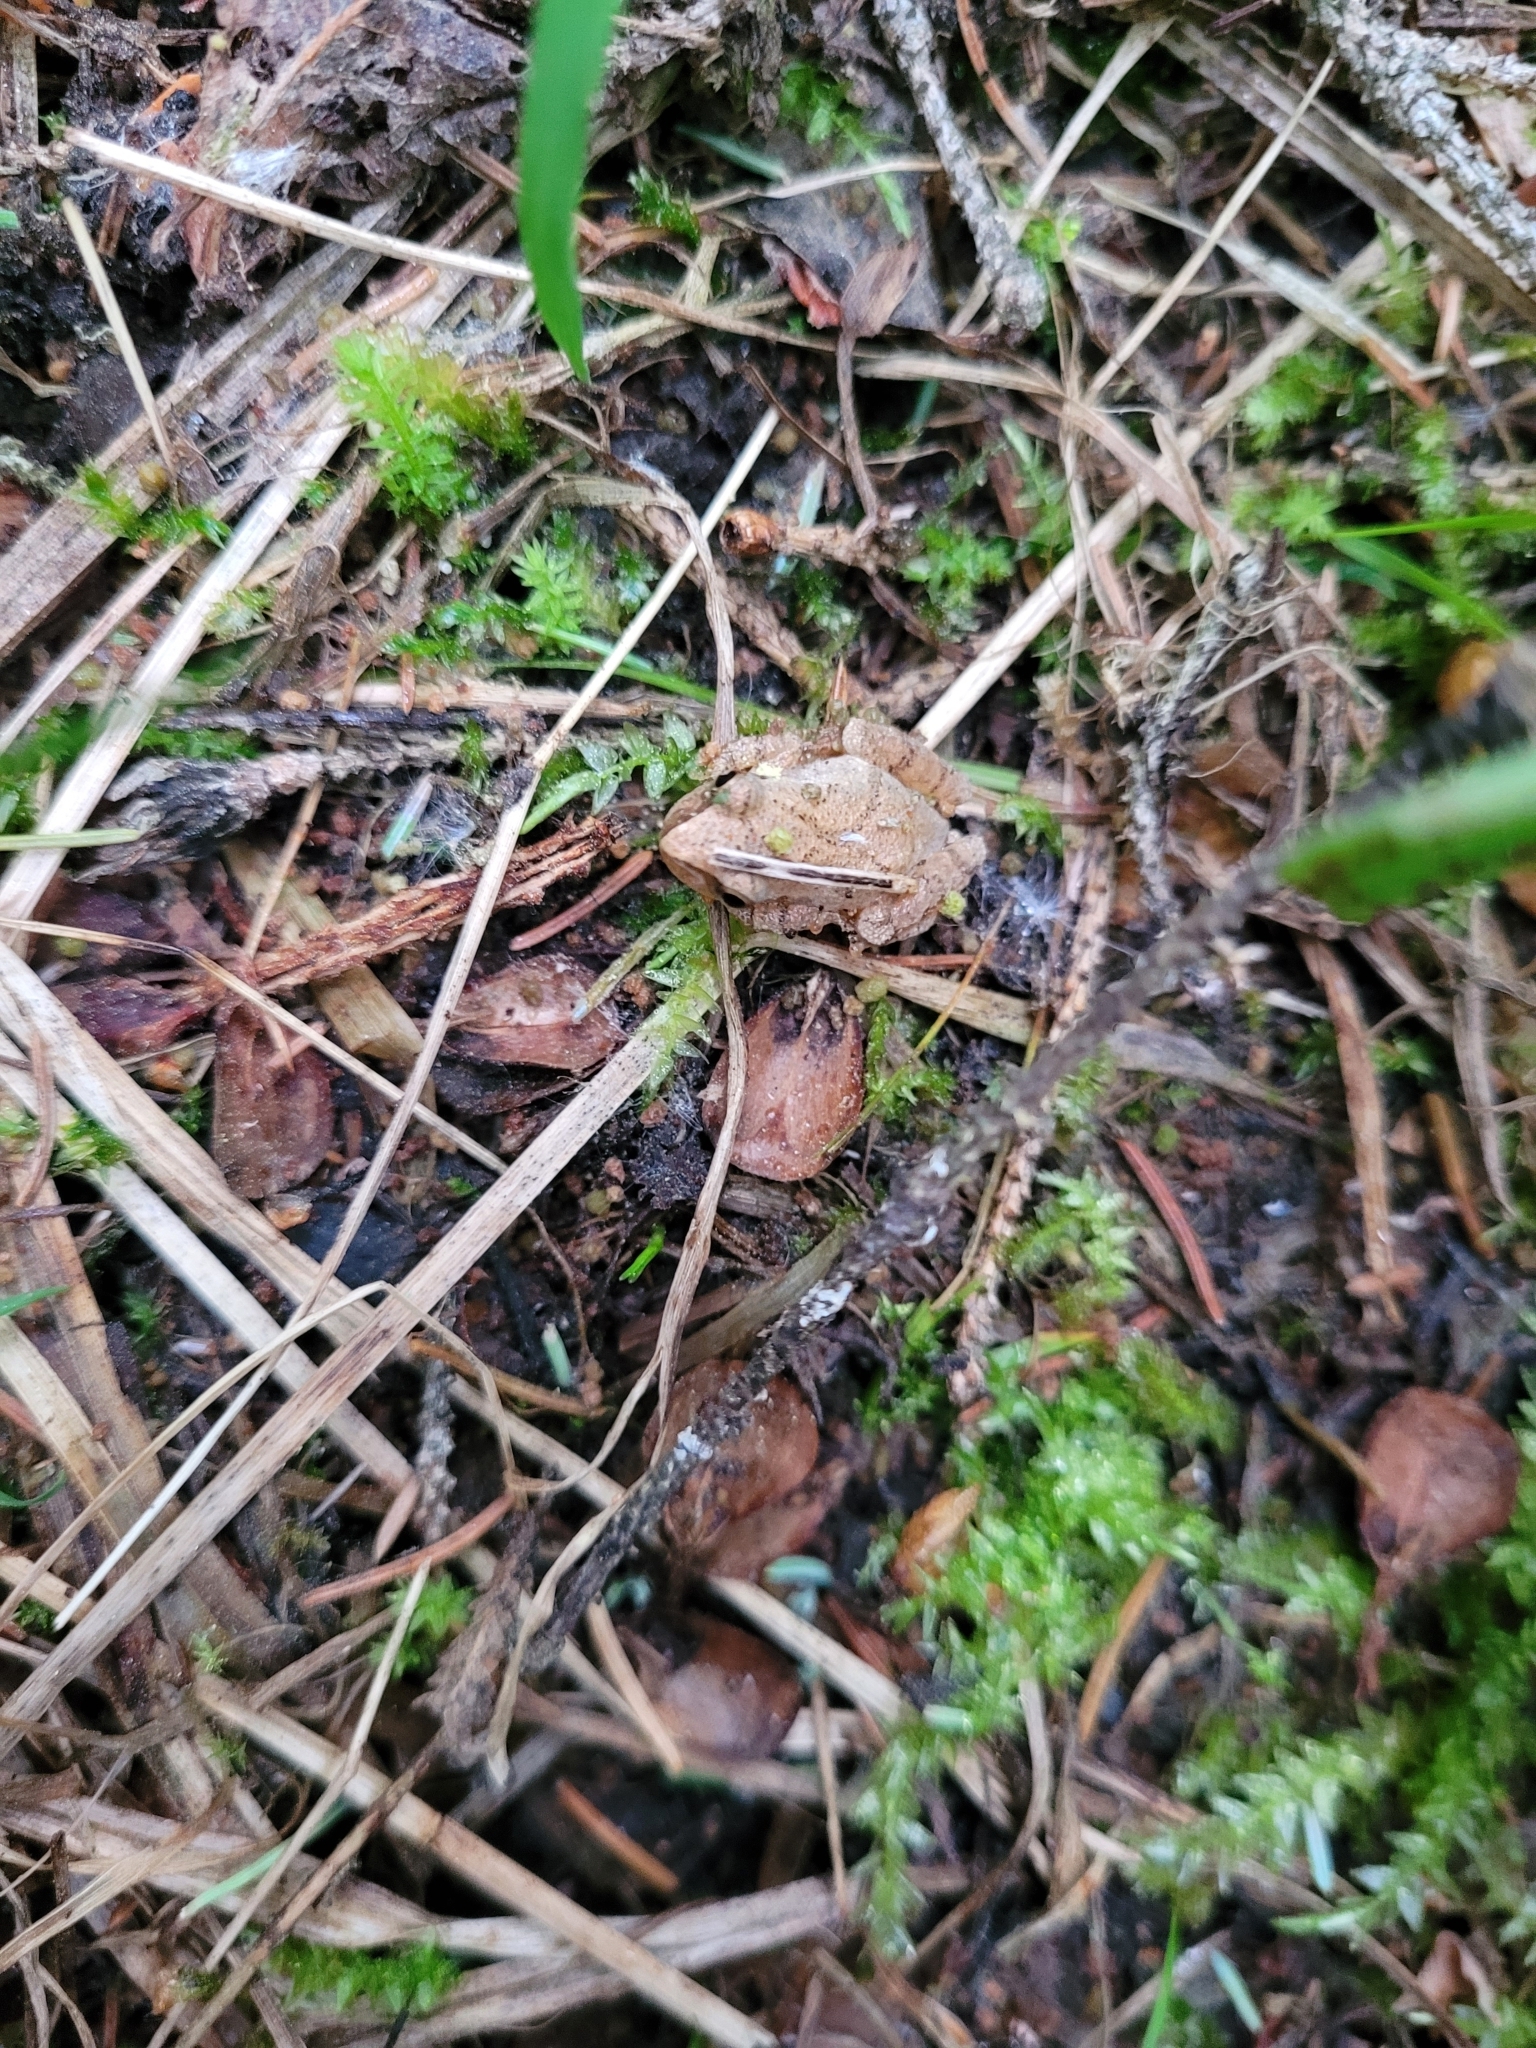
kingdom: Animalia
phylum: Chordata
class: Amphibia
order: Anura
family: Hylidae
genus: Pseudacris
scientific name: Pseudacris crucifer
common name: Spring peeper
